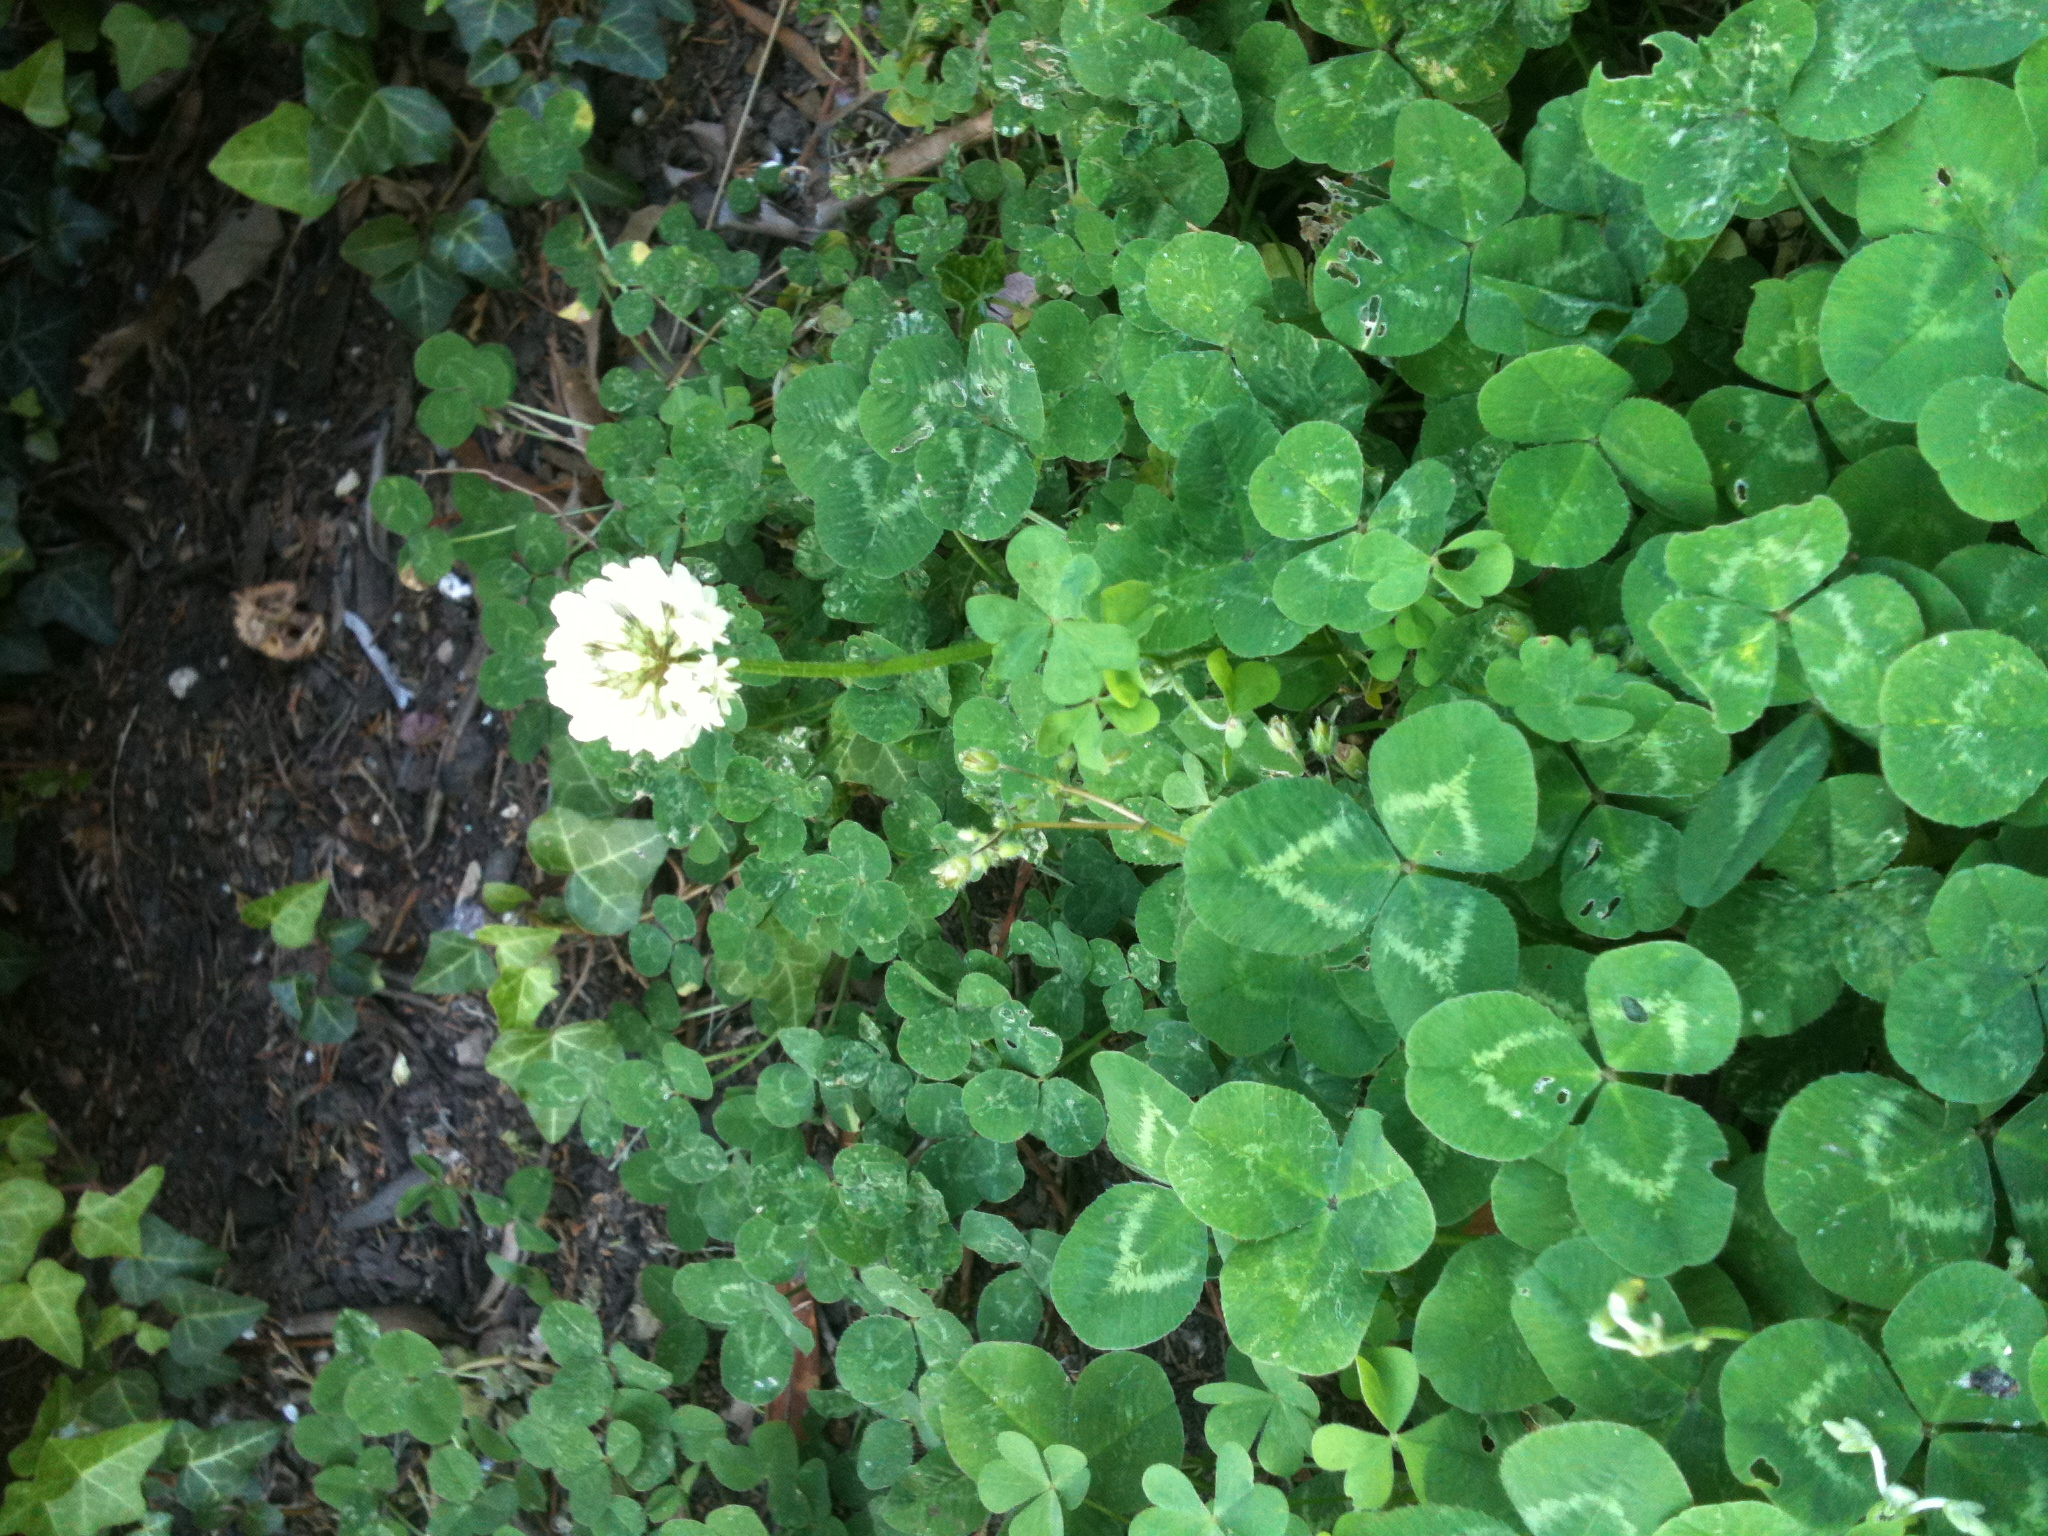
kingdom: Plantae
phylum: Tracheophyta
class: Magnoliopsida
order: Fabales
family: Fabaceae
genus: Trifolium
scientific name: Trifolium repens
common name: White clover
